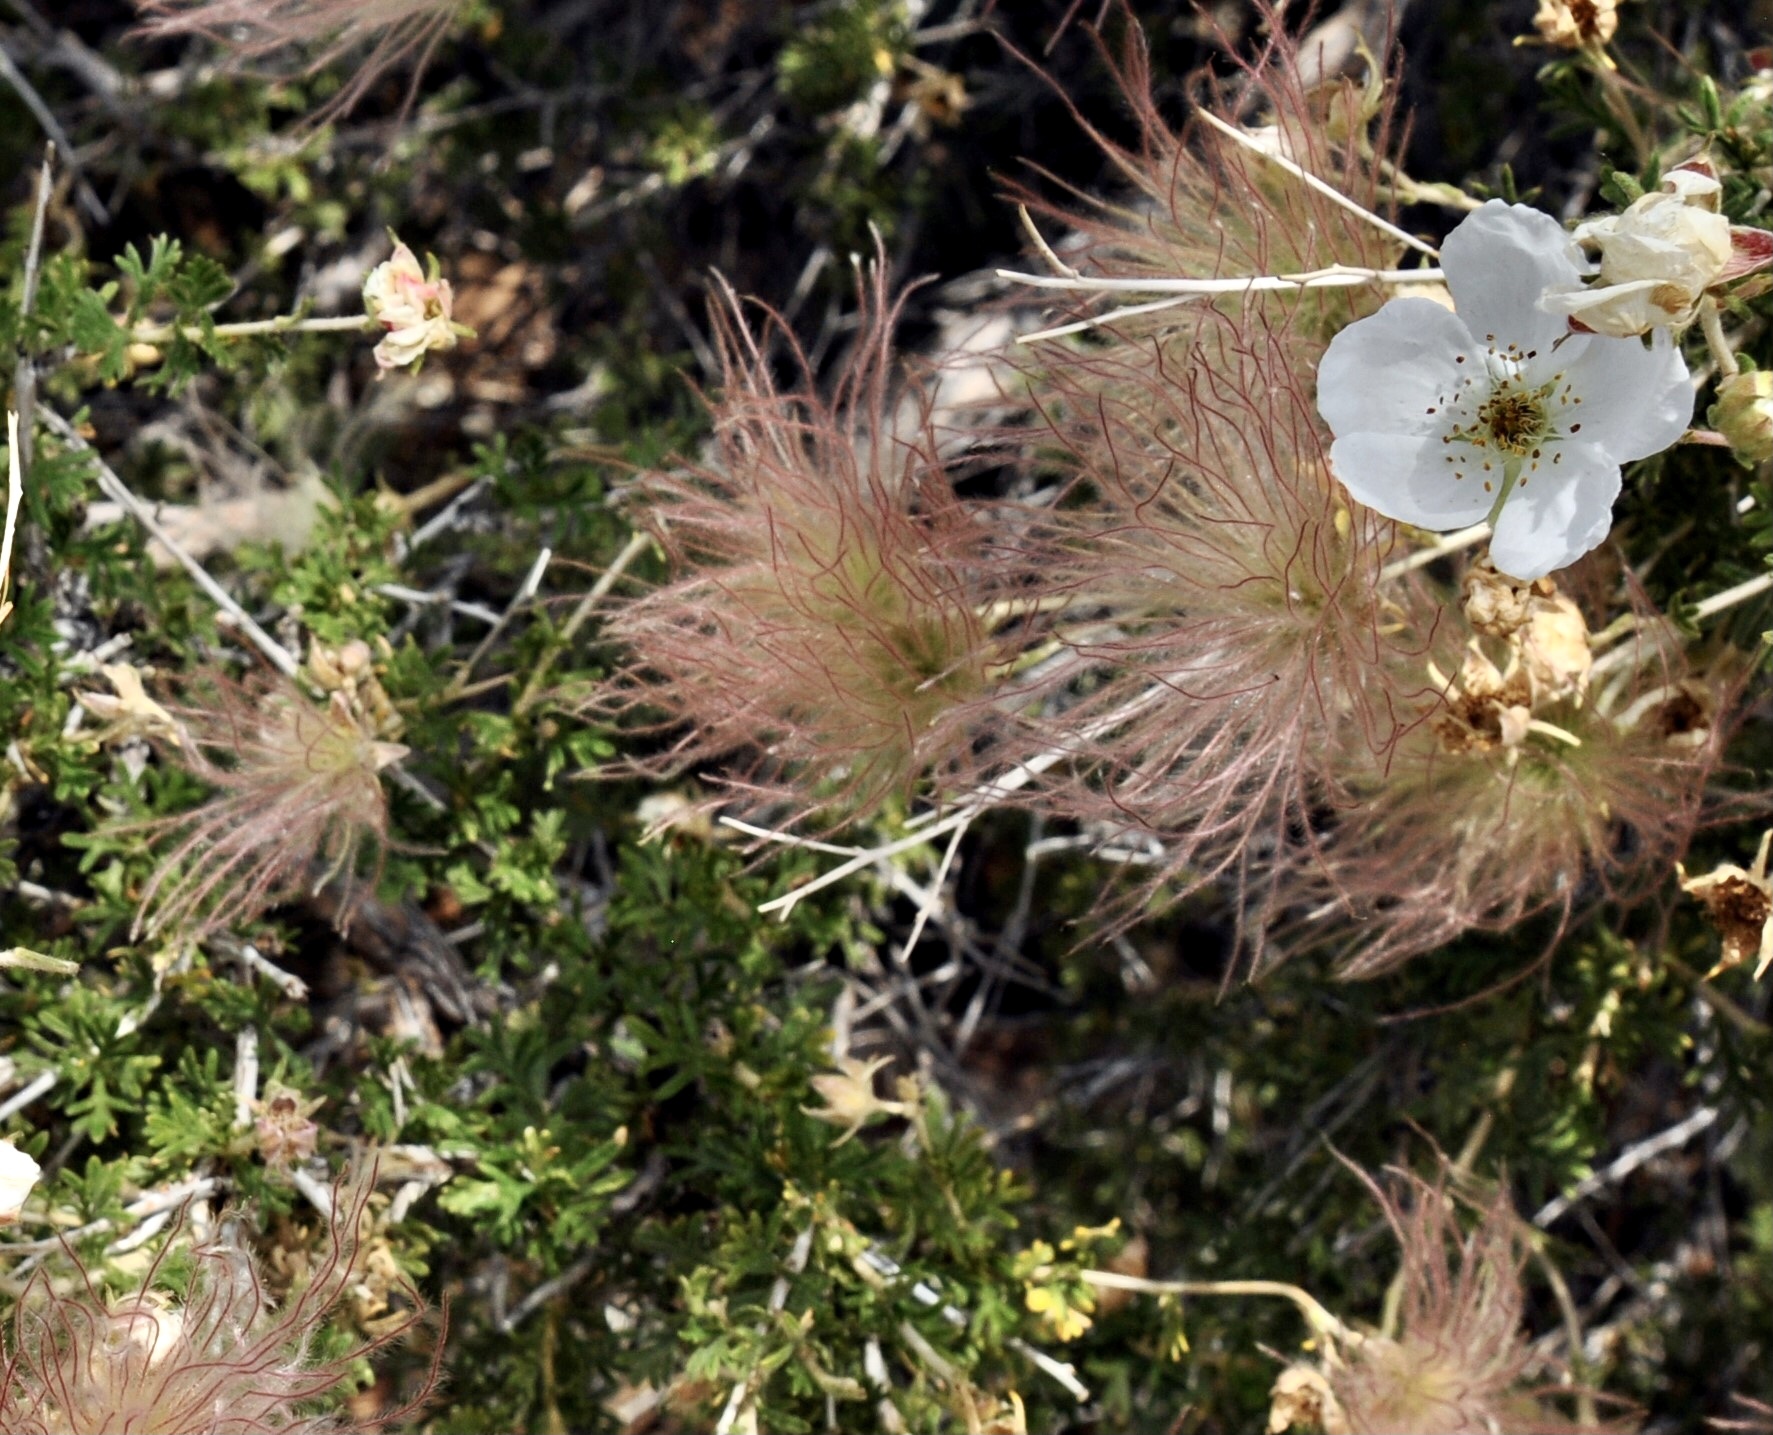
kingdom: Plantae
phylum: Tracheophyta
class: Magnoliopsida
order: Rosales
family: Rosaceae
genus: Fallugia
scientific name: Fallugia paradoxa
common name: Apache-plume
